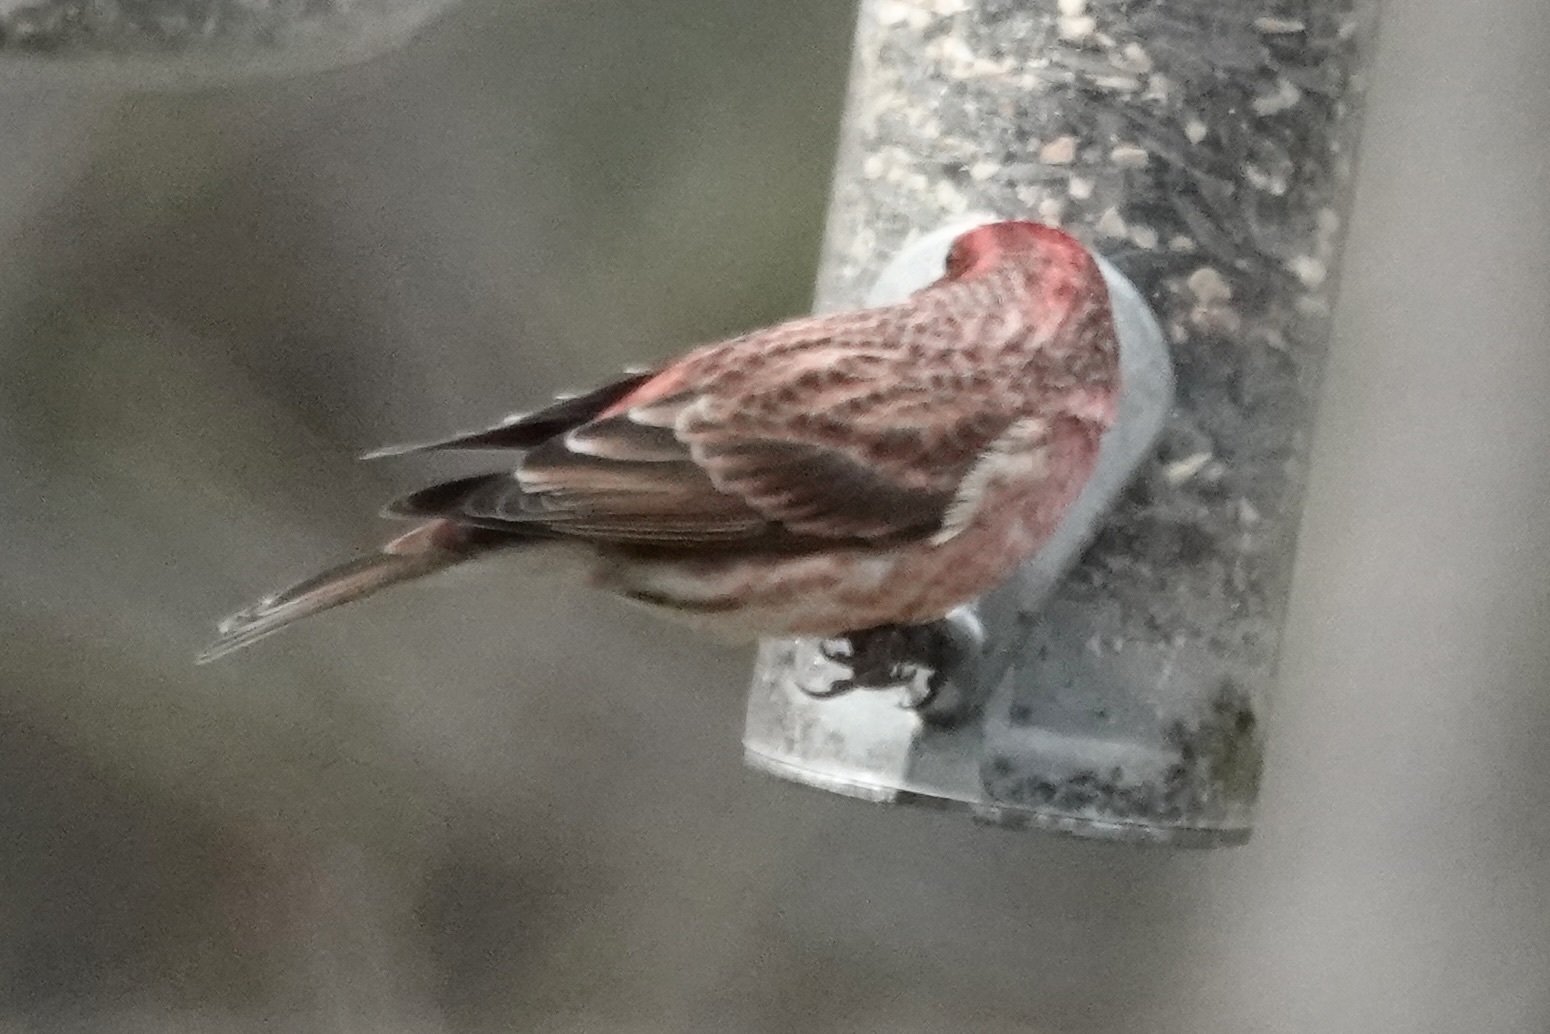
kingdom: Animalia
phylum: Chordata
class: Aves
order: Passeriformes
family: Fringillidae
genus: Haemorhous
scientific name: Haemorhous purpureus
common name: Purple finch
